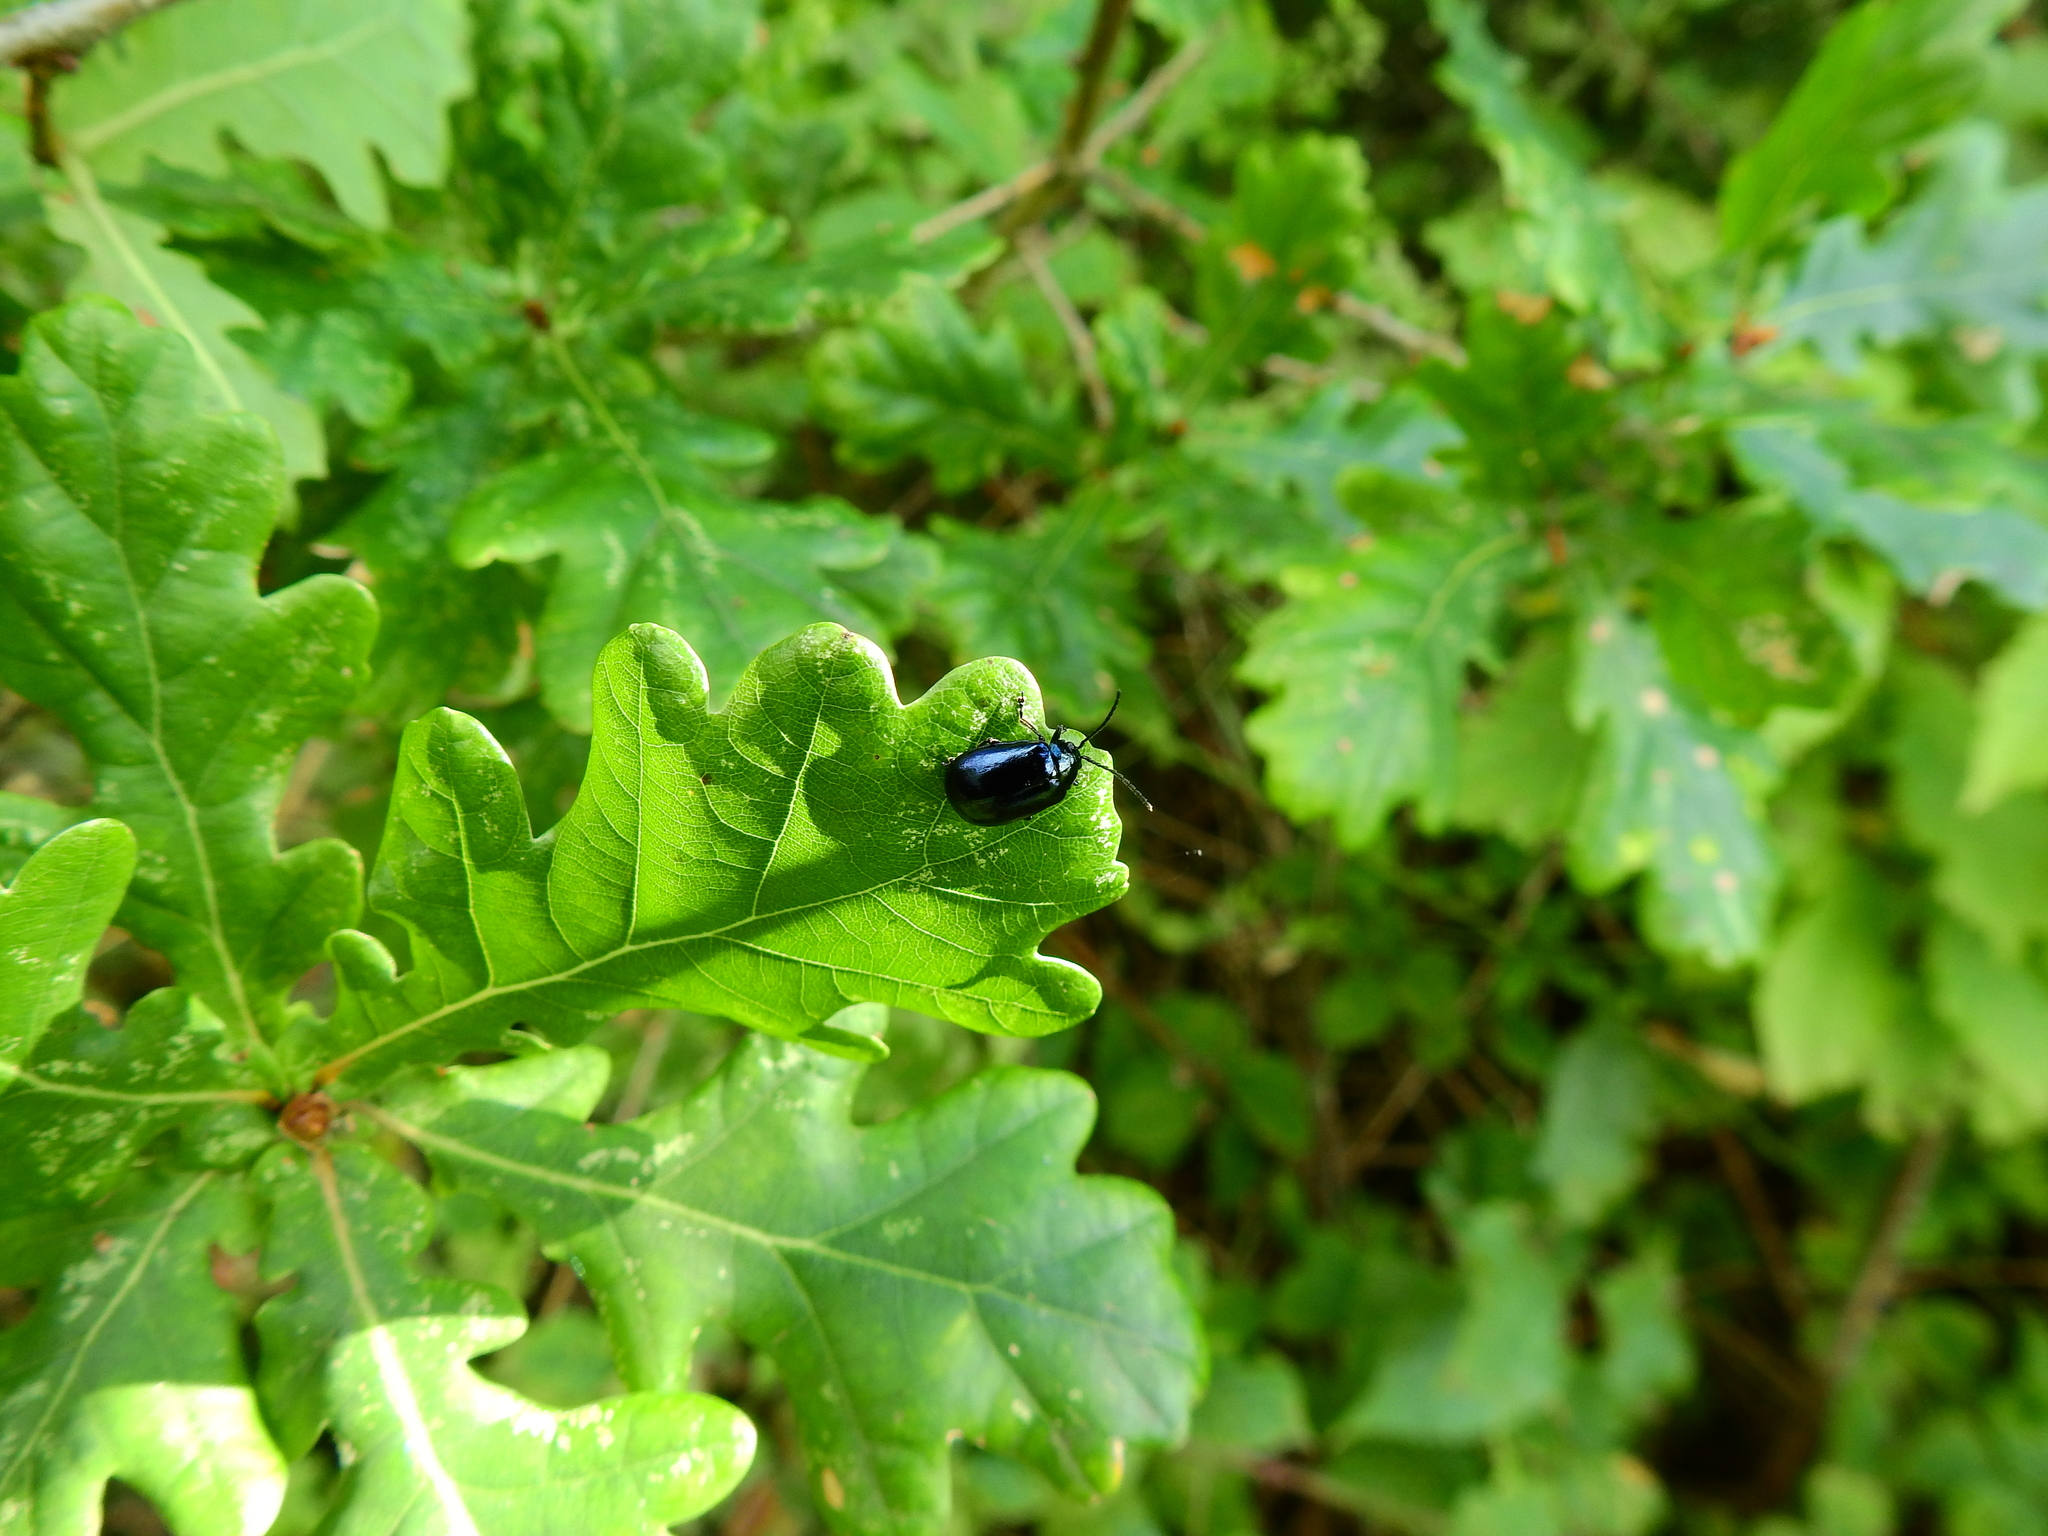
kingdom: Animalia
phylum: Arthropoda
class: Insecta
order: Coleoptera
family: Chrysomelidae
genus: Agelastica
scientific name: Agelastica alni
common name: Alder leaf beetle
